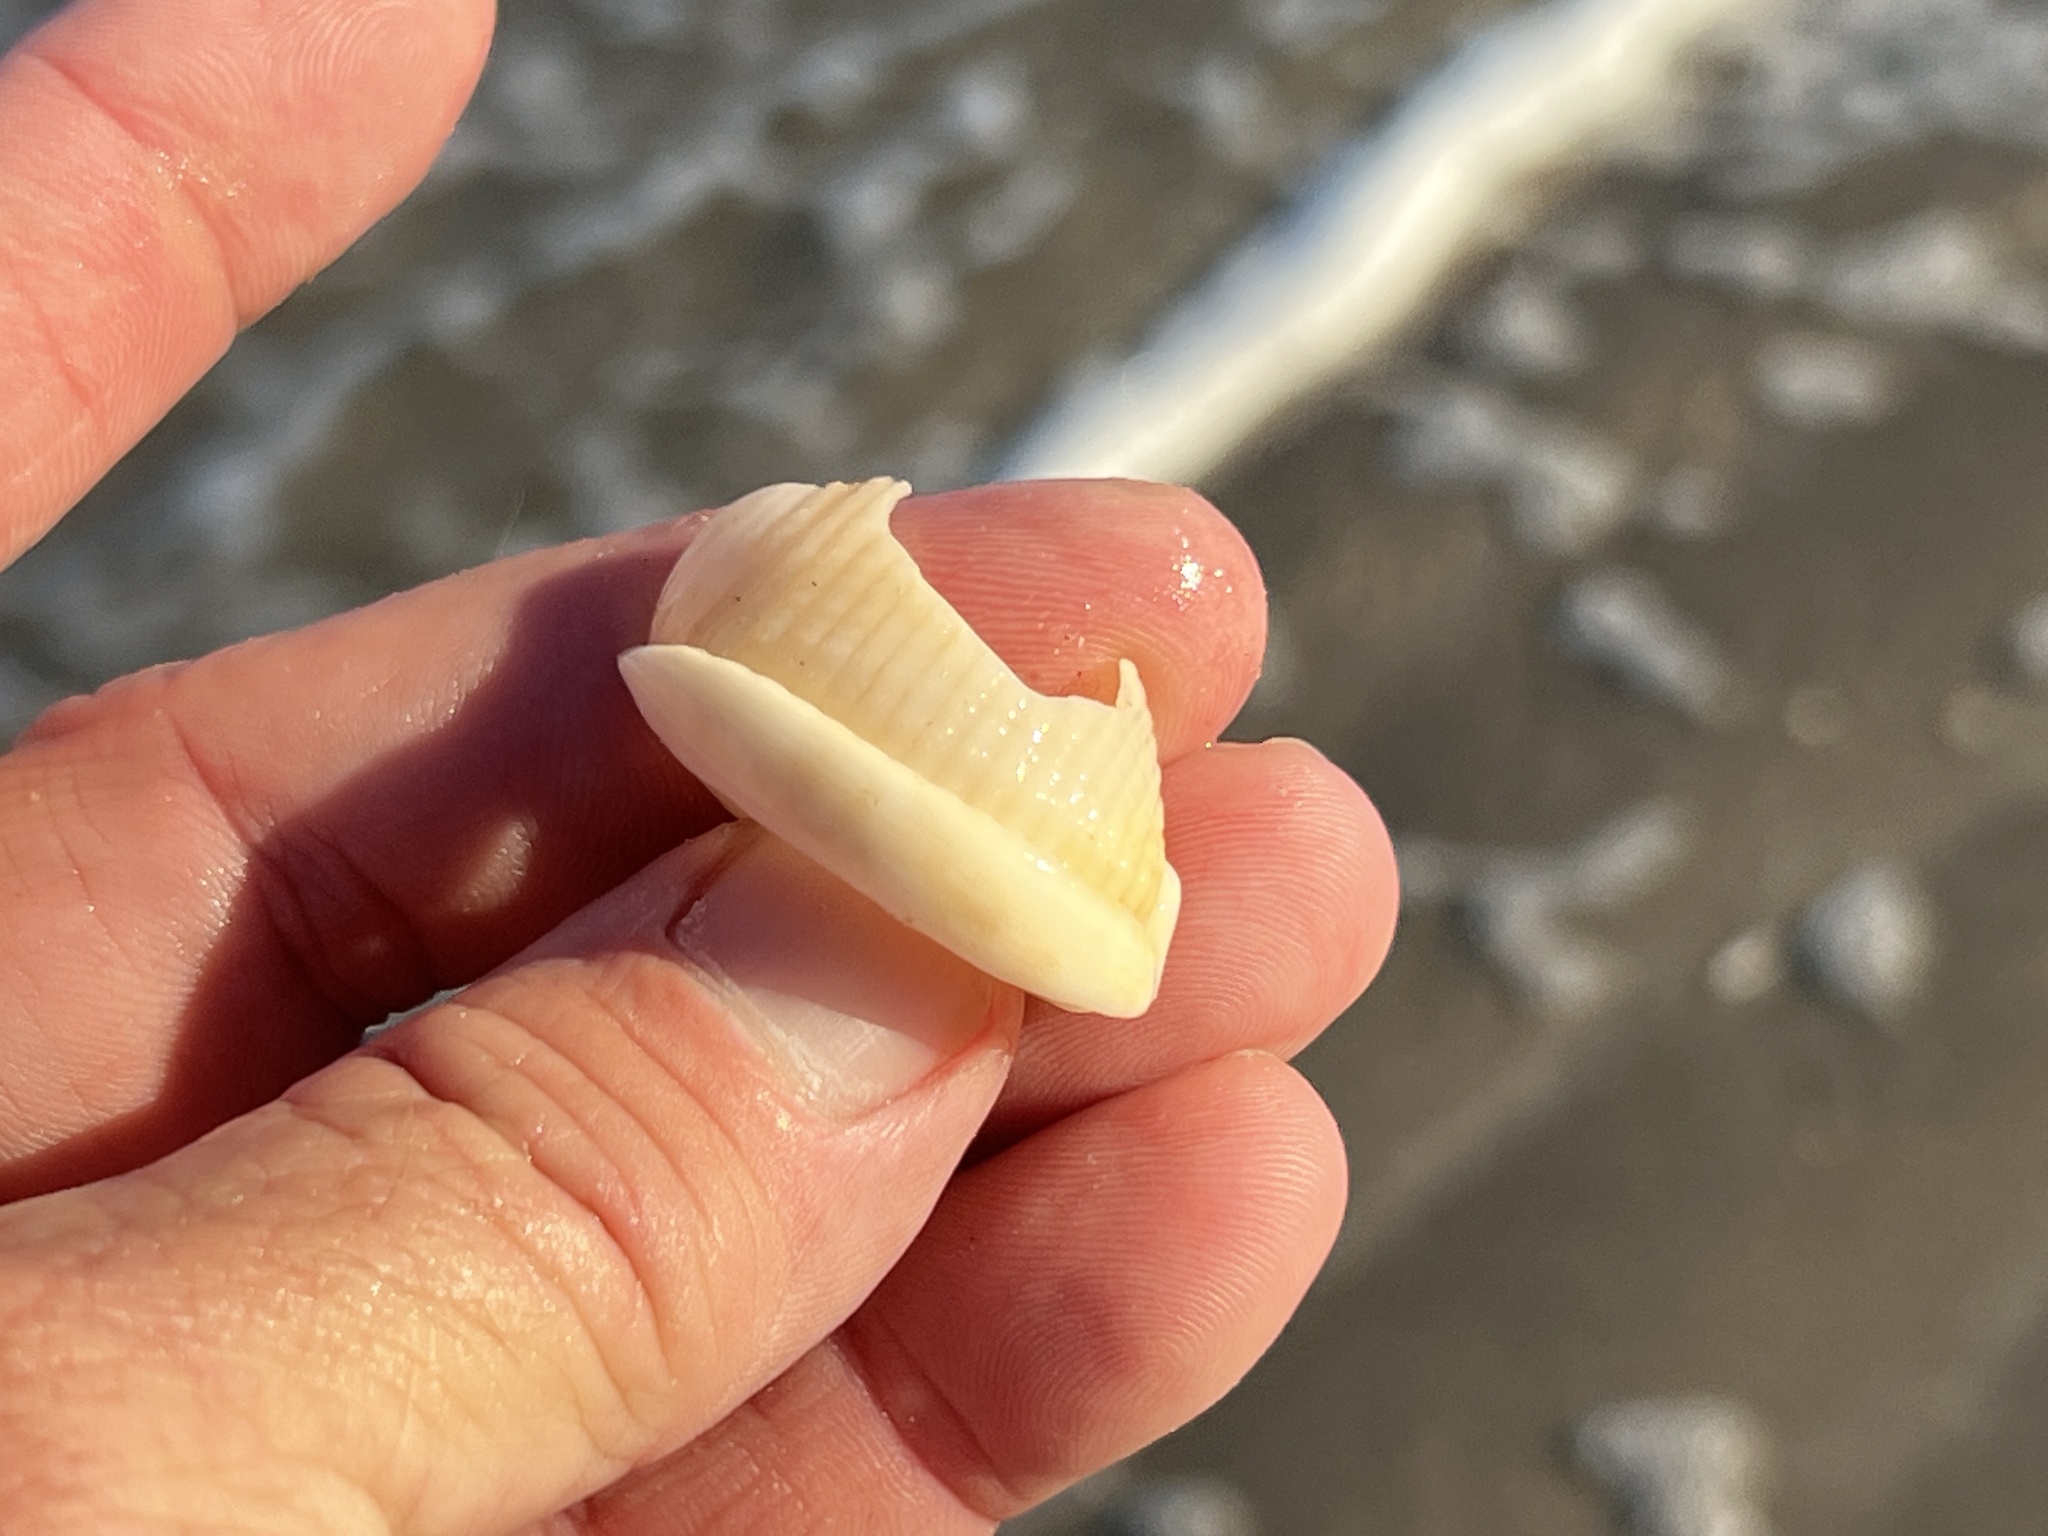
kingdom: Animalia
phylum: Mollusca
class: Gastropoda
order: Littorinimorpha
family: Cassidae
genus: Semicassis
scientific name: Semicassis granulata
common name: Scotch bonnet
